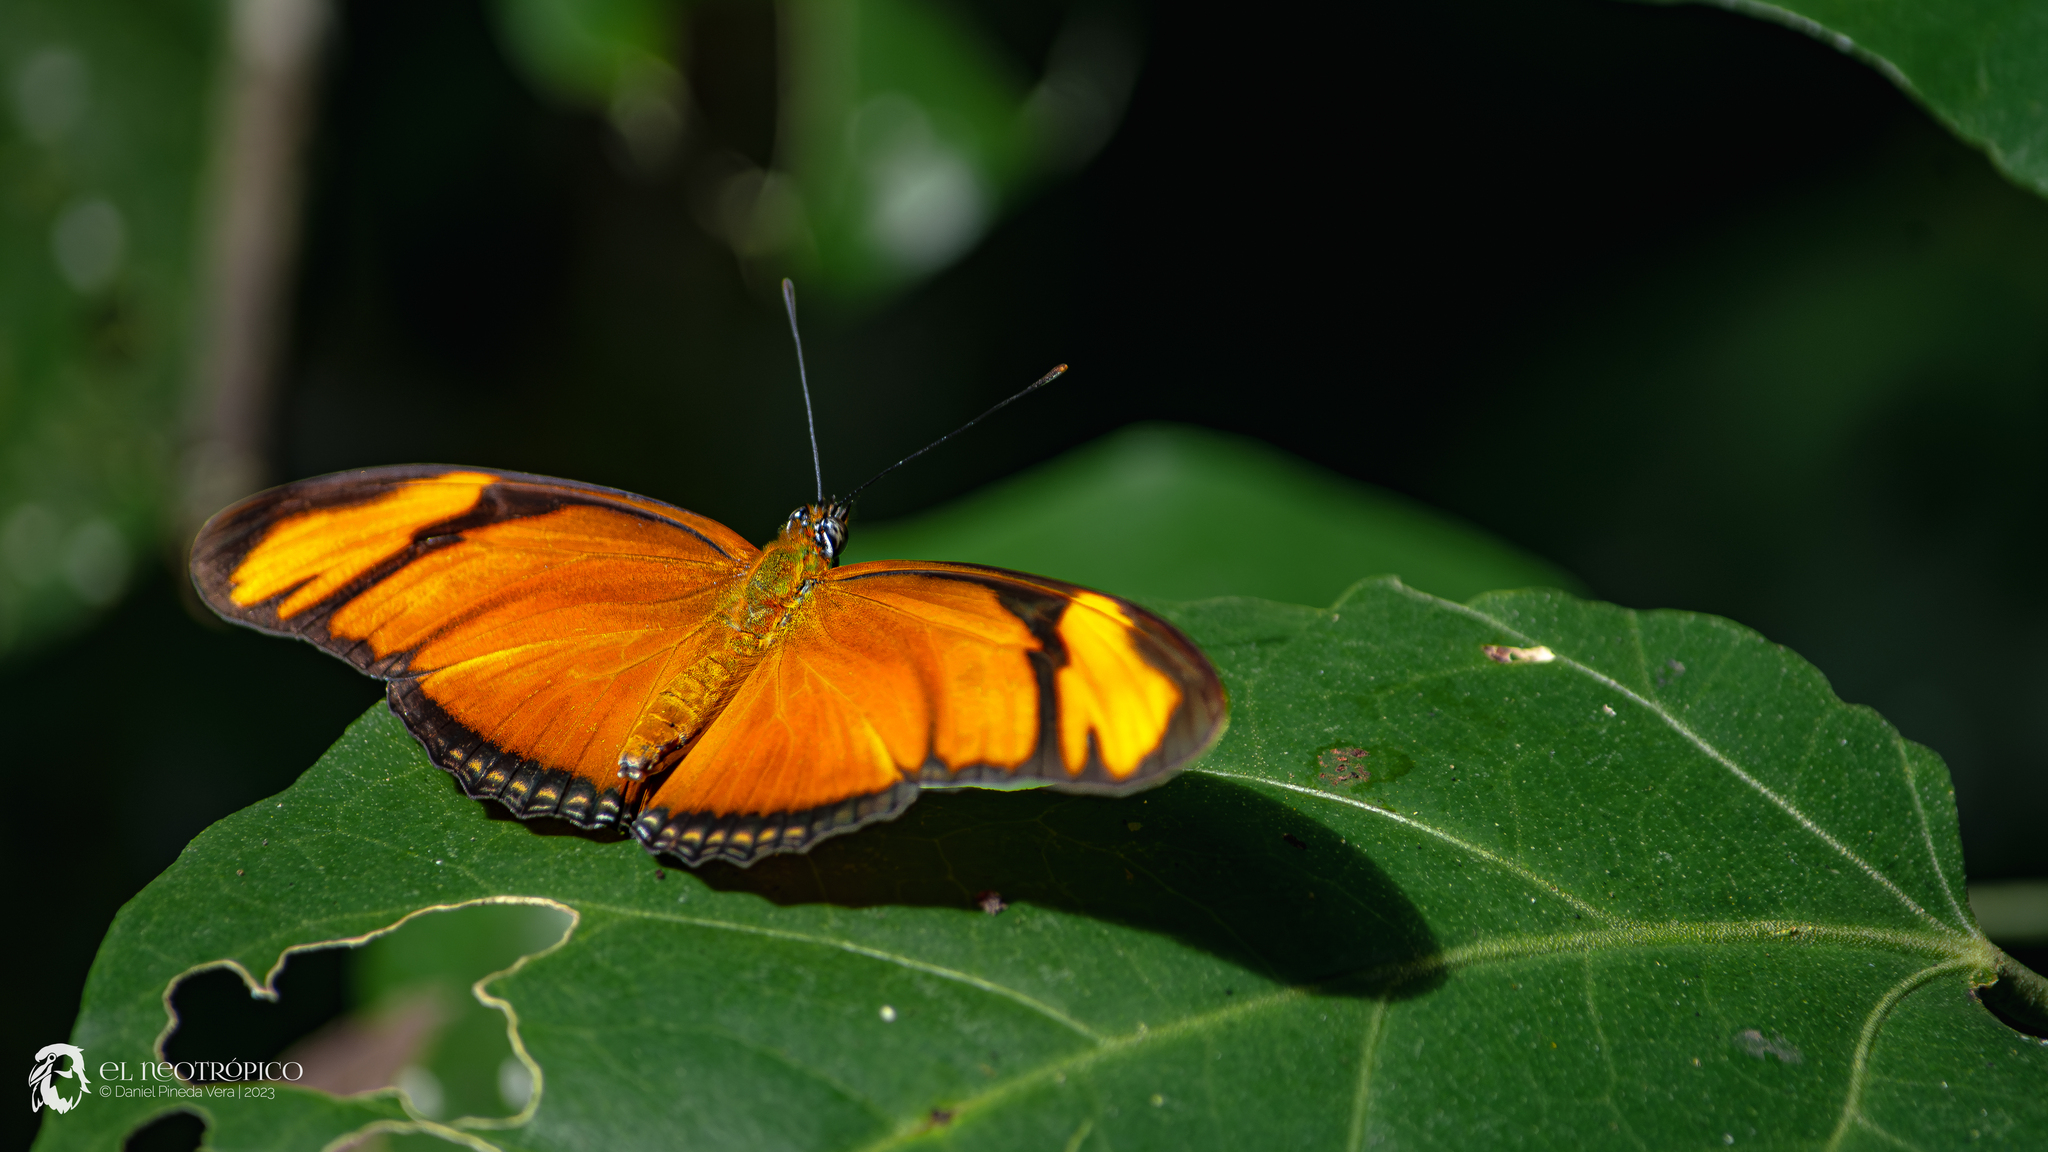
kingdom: Animalia
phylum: Arthropoda
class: Insecta
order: Lepidoptera
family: Nymphalidae
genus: Dryas
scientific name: Dryas iulia
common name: Flambeau
